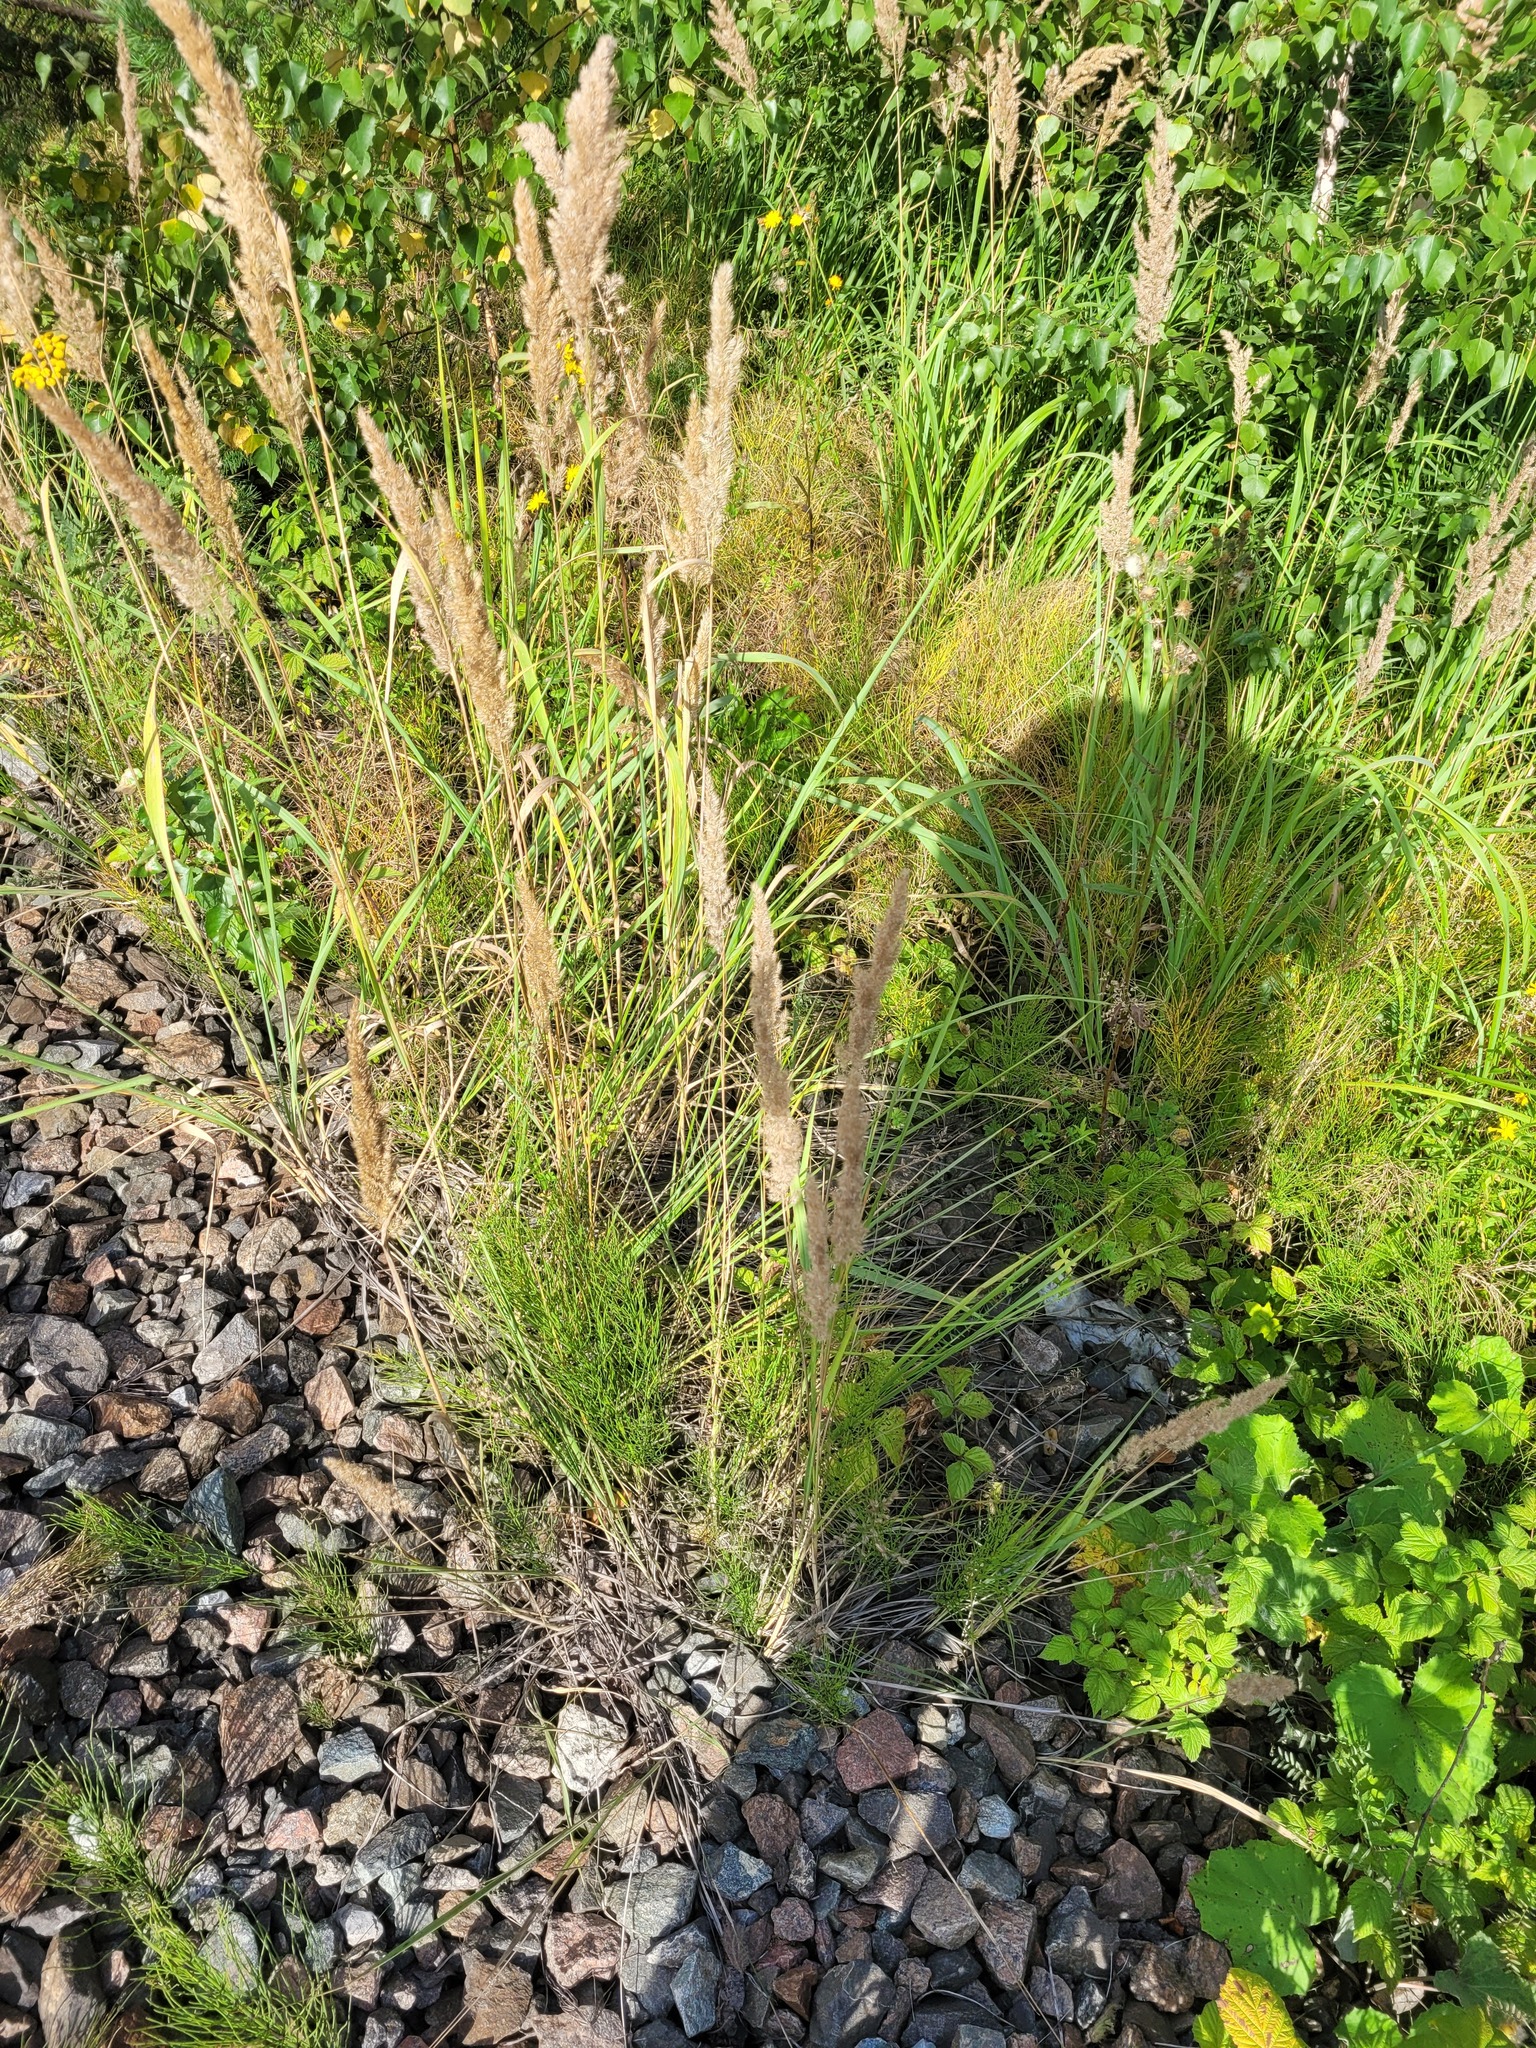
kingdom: Plantae
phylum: Tracheophyta
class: Liliopsida
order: Poales
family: Poaceae
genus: Calamagrostis
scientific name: Calamagrostis epigejos
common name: Wood small-reed
